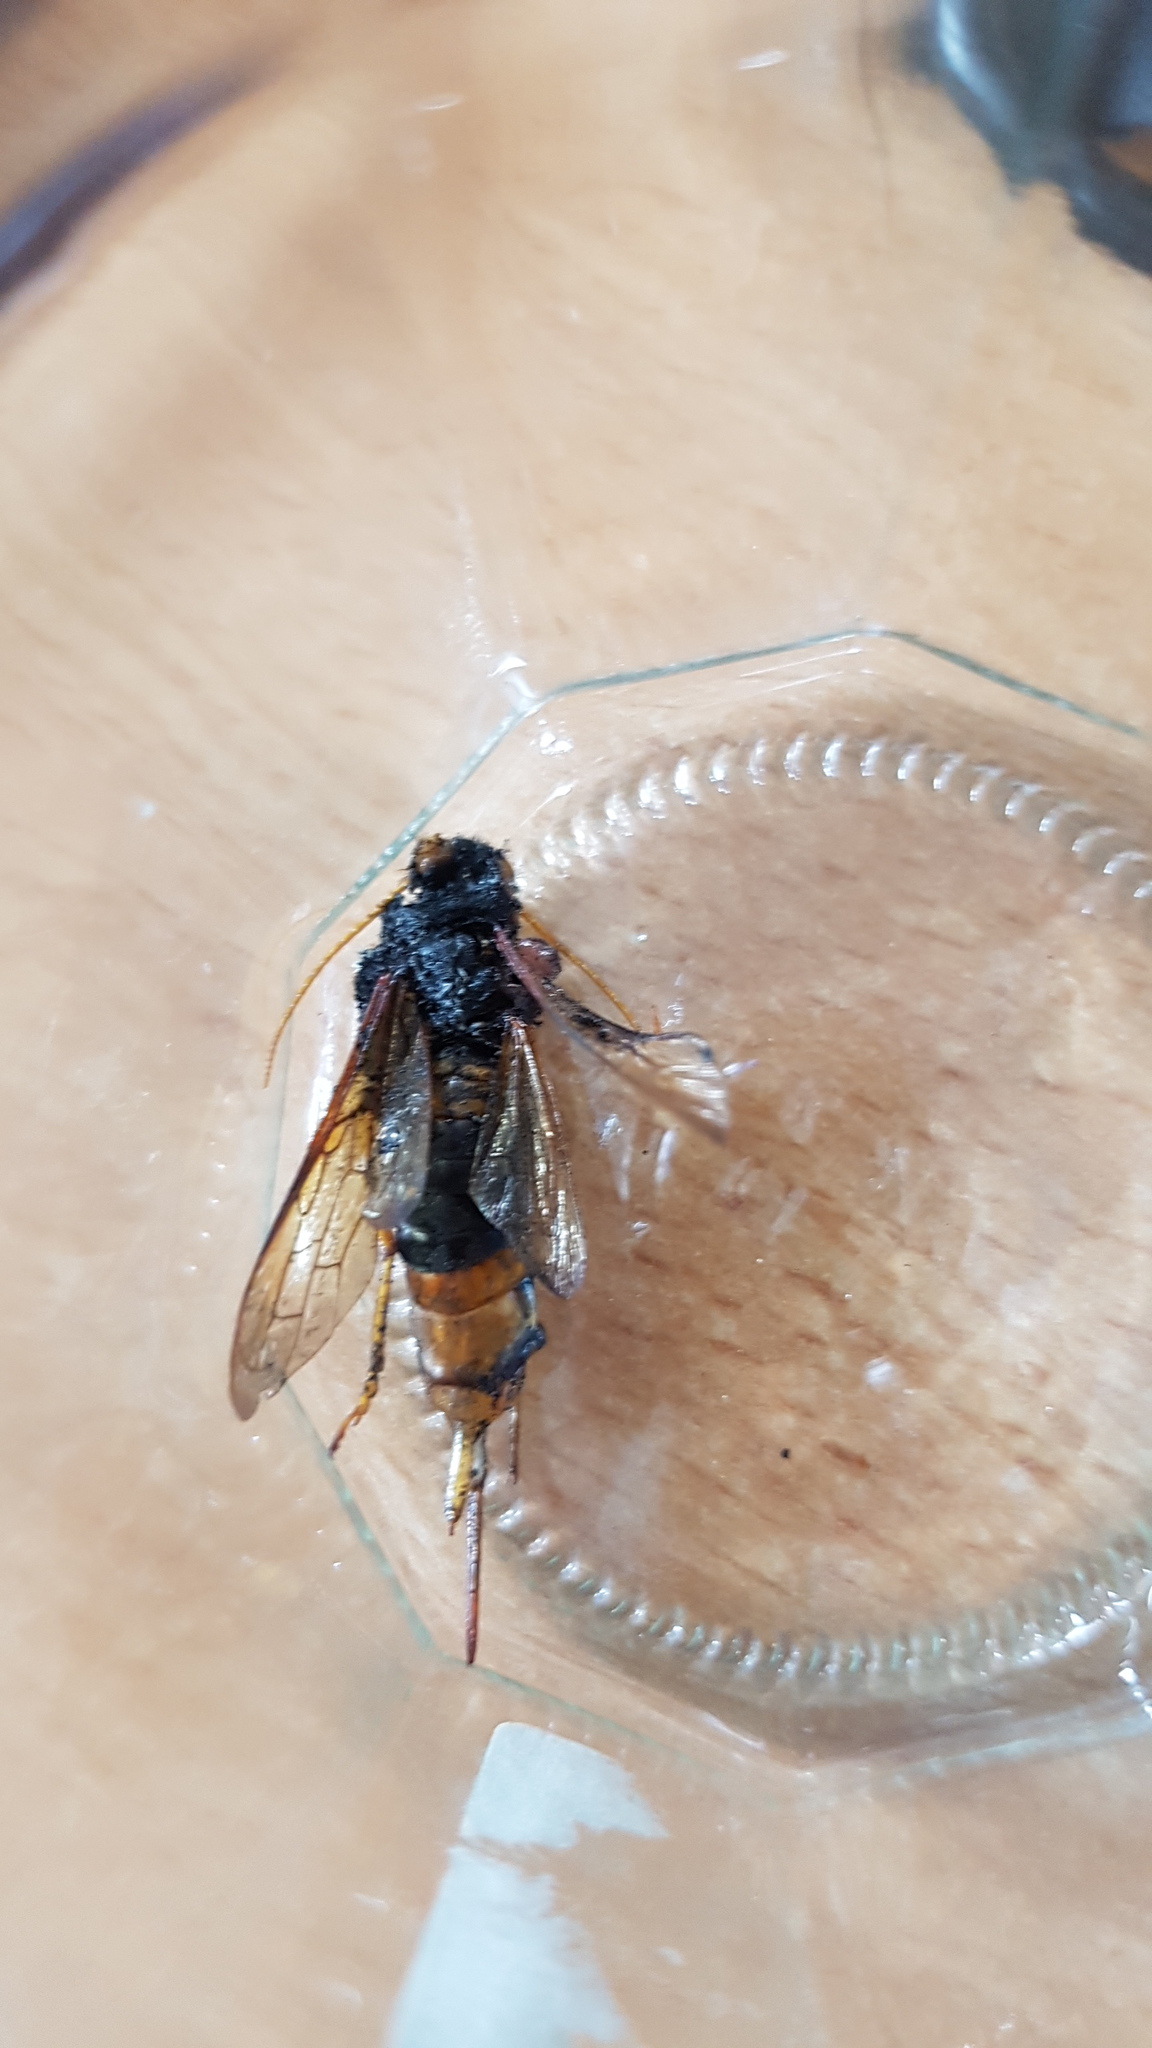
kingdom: Animalia
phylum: Arthropoda
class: Insecta
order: Hymenoptera
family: Siricidae
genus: Urocerus
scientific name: Urocerus gigas
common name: Giant woodwasp
